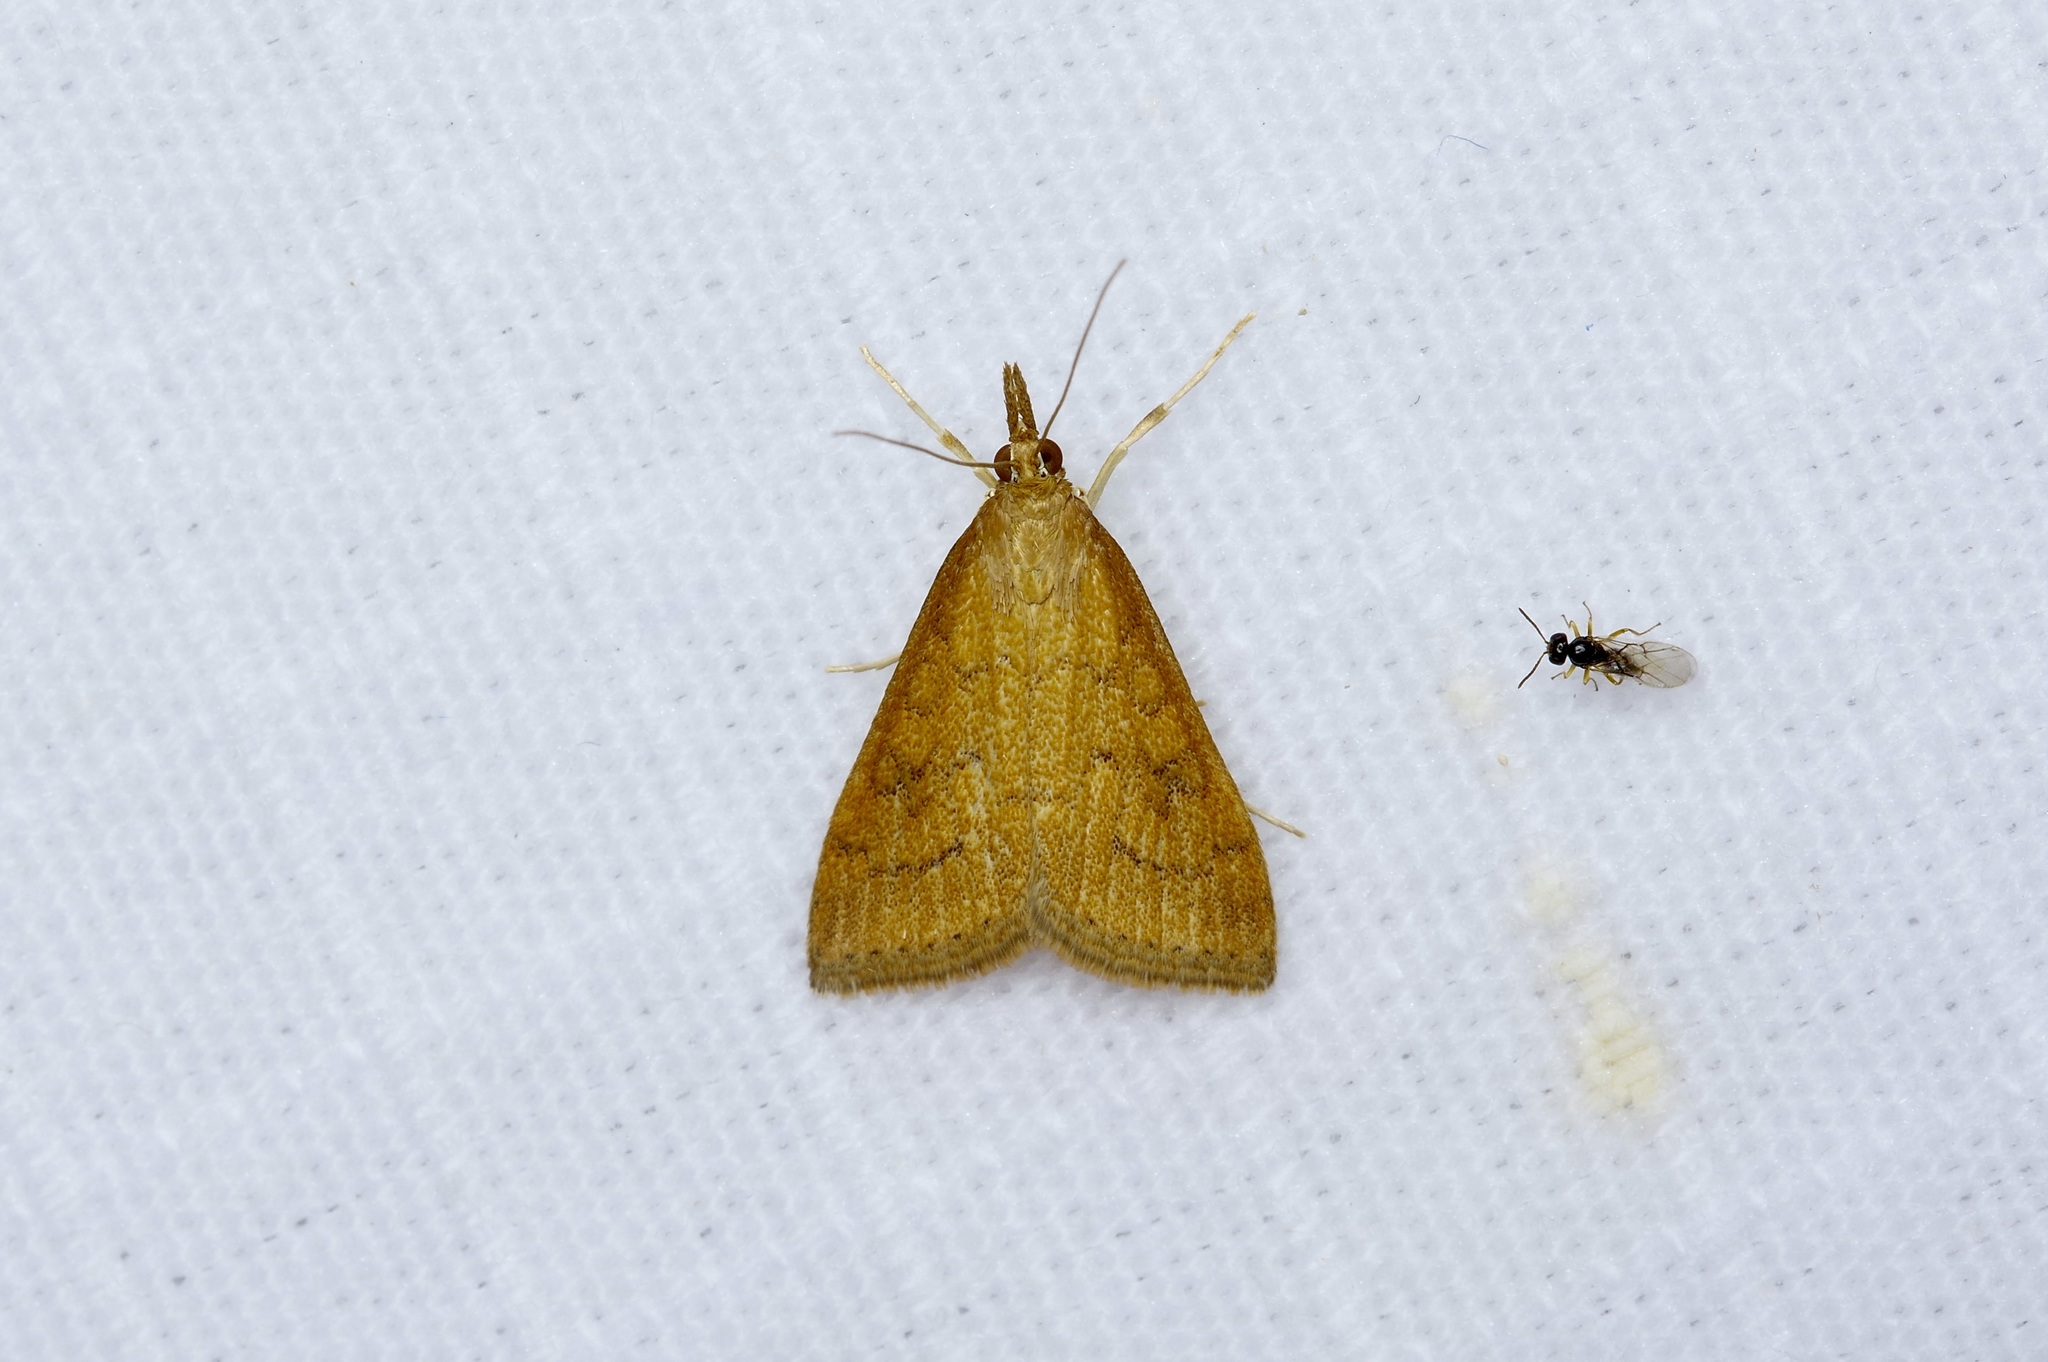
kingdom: Animalia
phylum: Arthropoda
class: Insecta
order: Lepidoptera
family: Crambidae
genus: Udea
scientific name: Udea rubigalis
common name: Celery leaftier moth
